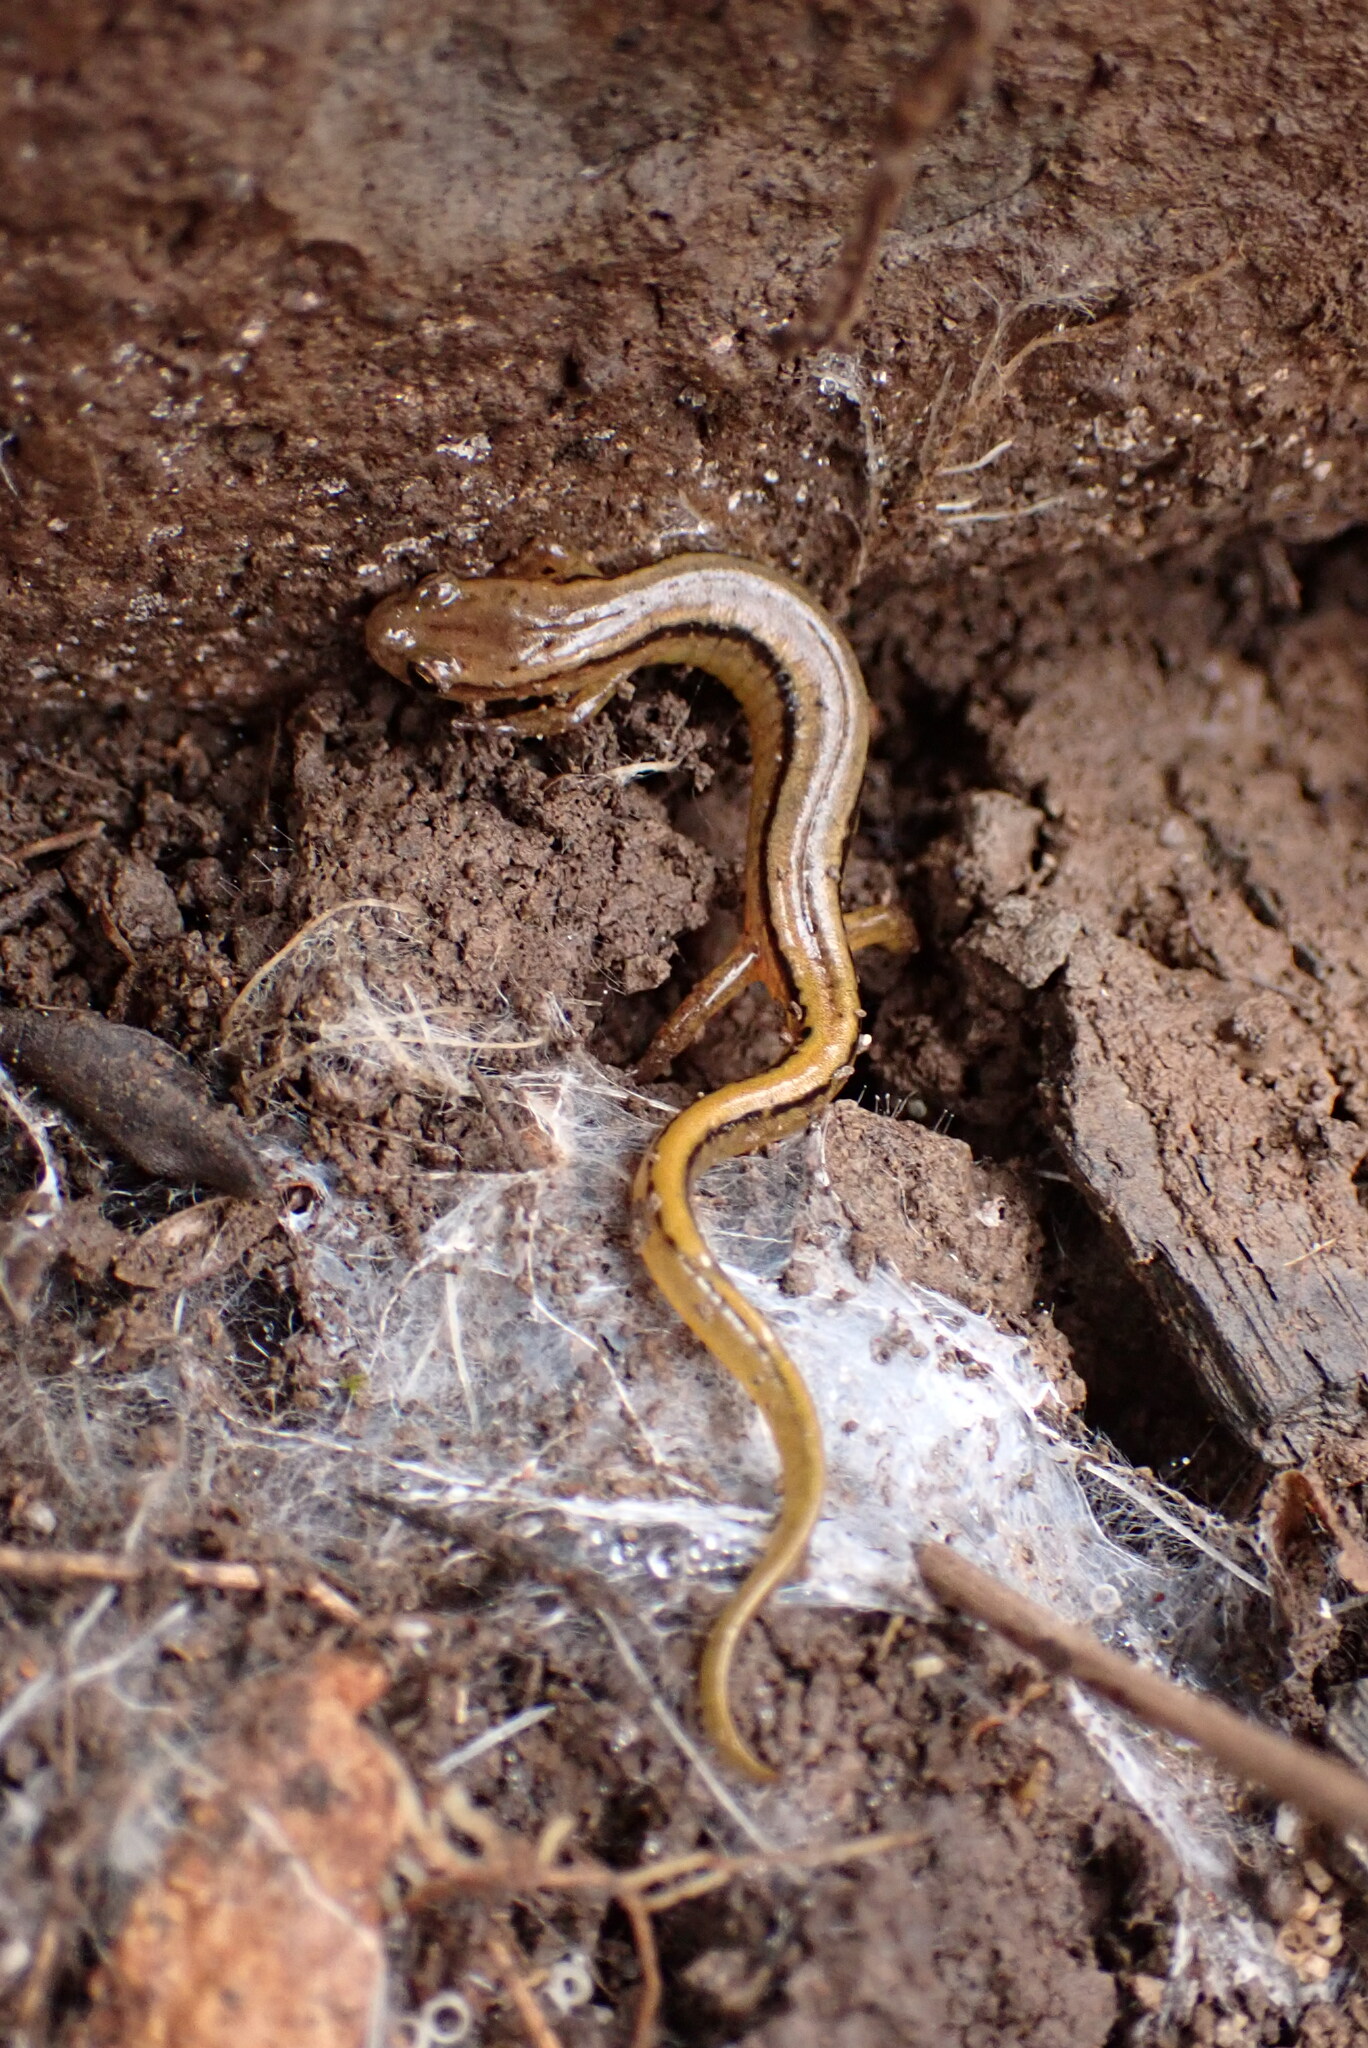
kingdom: Animalia
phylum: Chordata
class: Amphibia
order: Caudata
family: Plethodontidae
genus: Eurycea
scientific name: Eurycea bislineata
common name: Northern two-lined salamander
